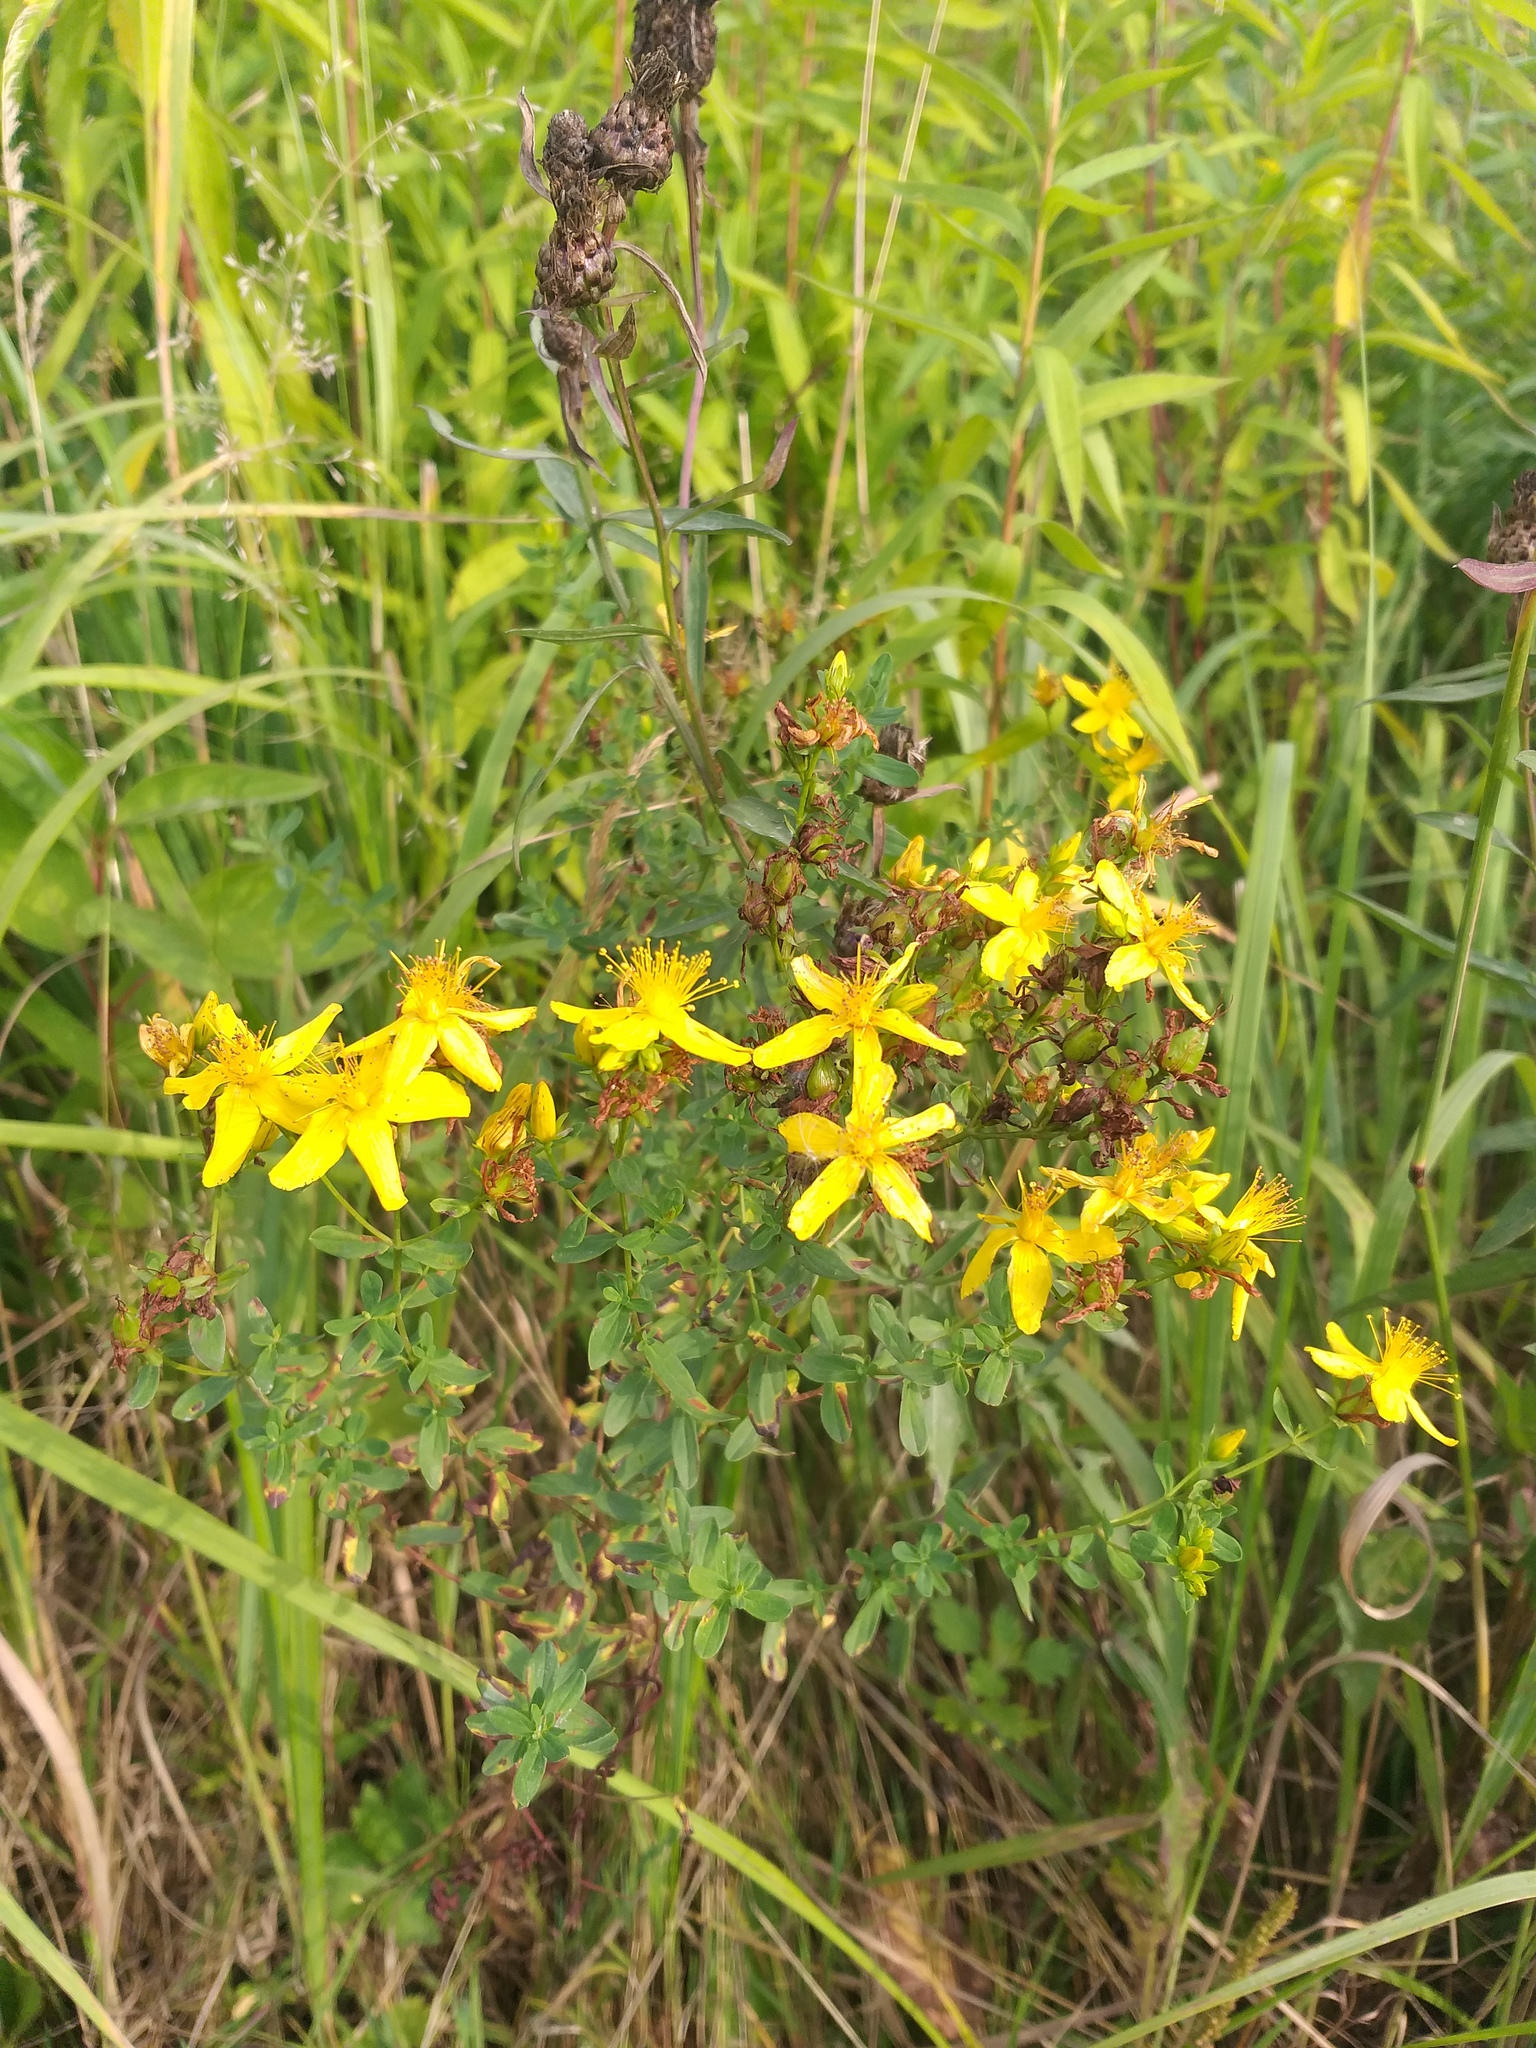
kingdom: Plantae
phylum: Tracheophyta
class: Magnoliopsida
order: Malpighiales
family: Hypericaceae
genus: Hypericum
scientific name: Hypericum perforatum
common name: Common st. johnswort
